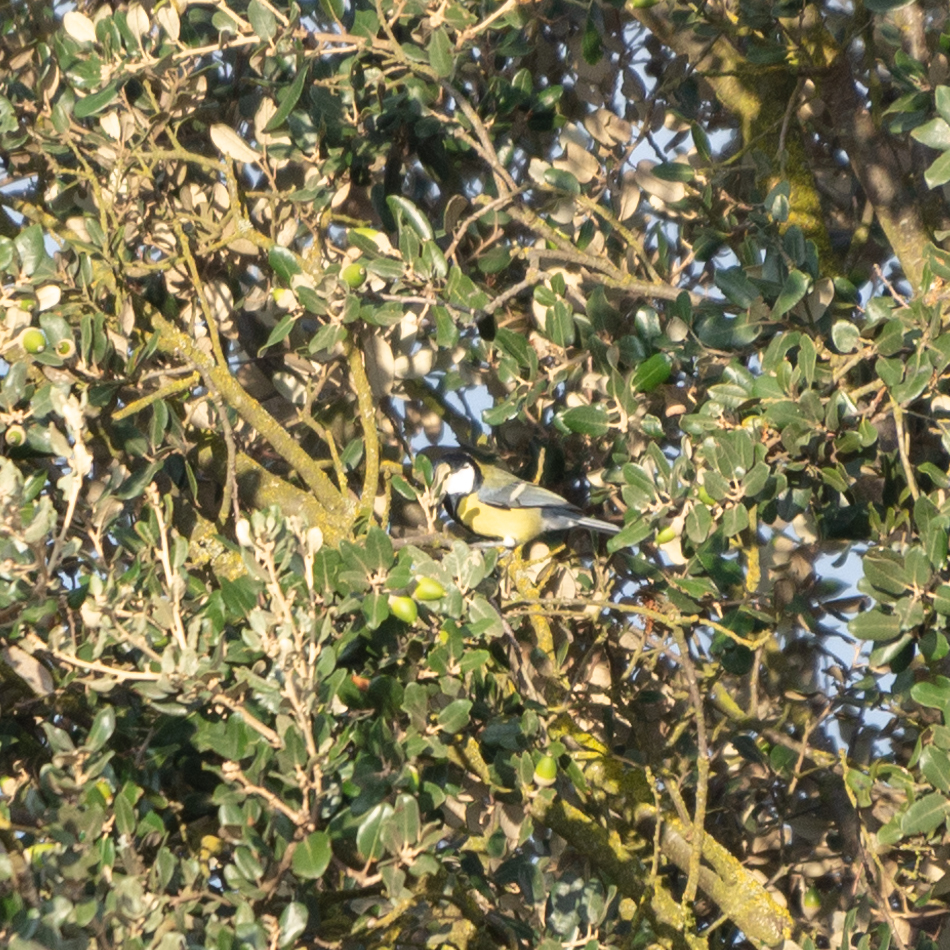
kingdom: Animalia
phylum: Chordata
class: Aves
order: Passeriformes
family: Paridae
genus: Parus
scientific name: Parus major
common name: Great tit
